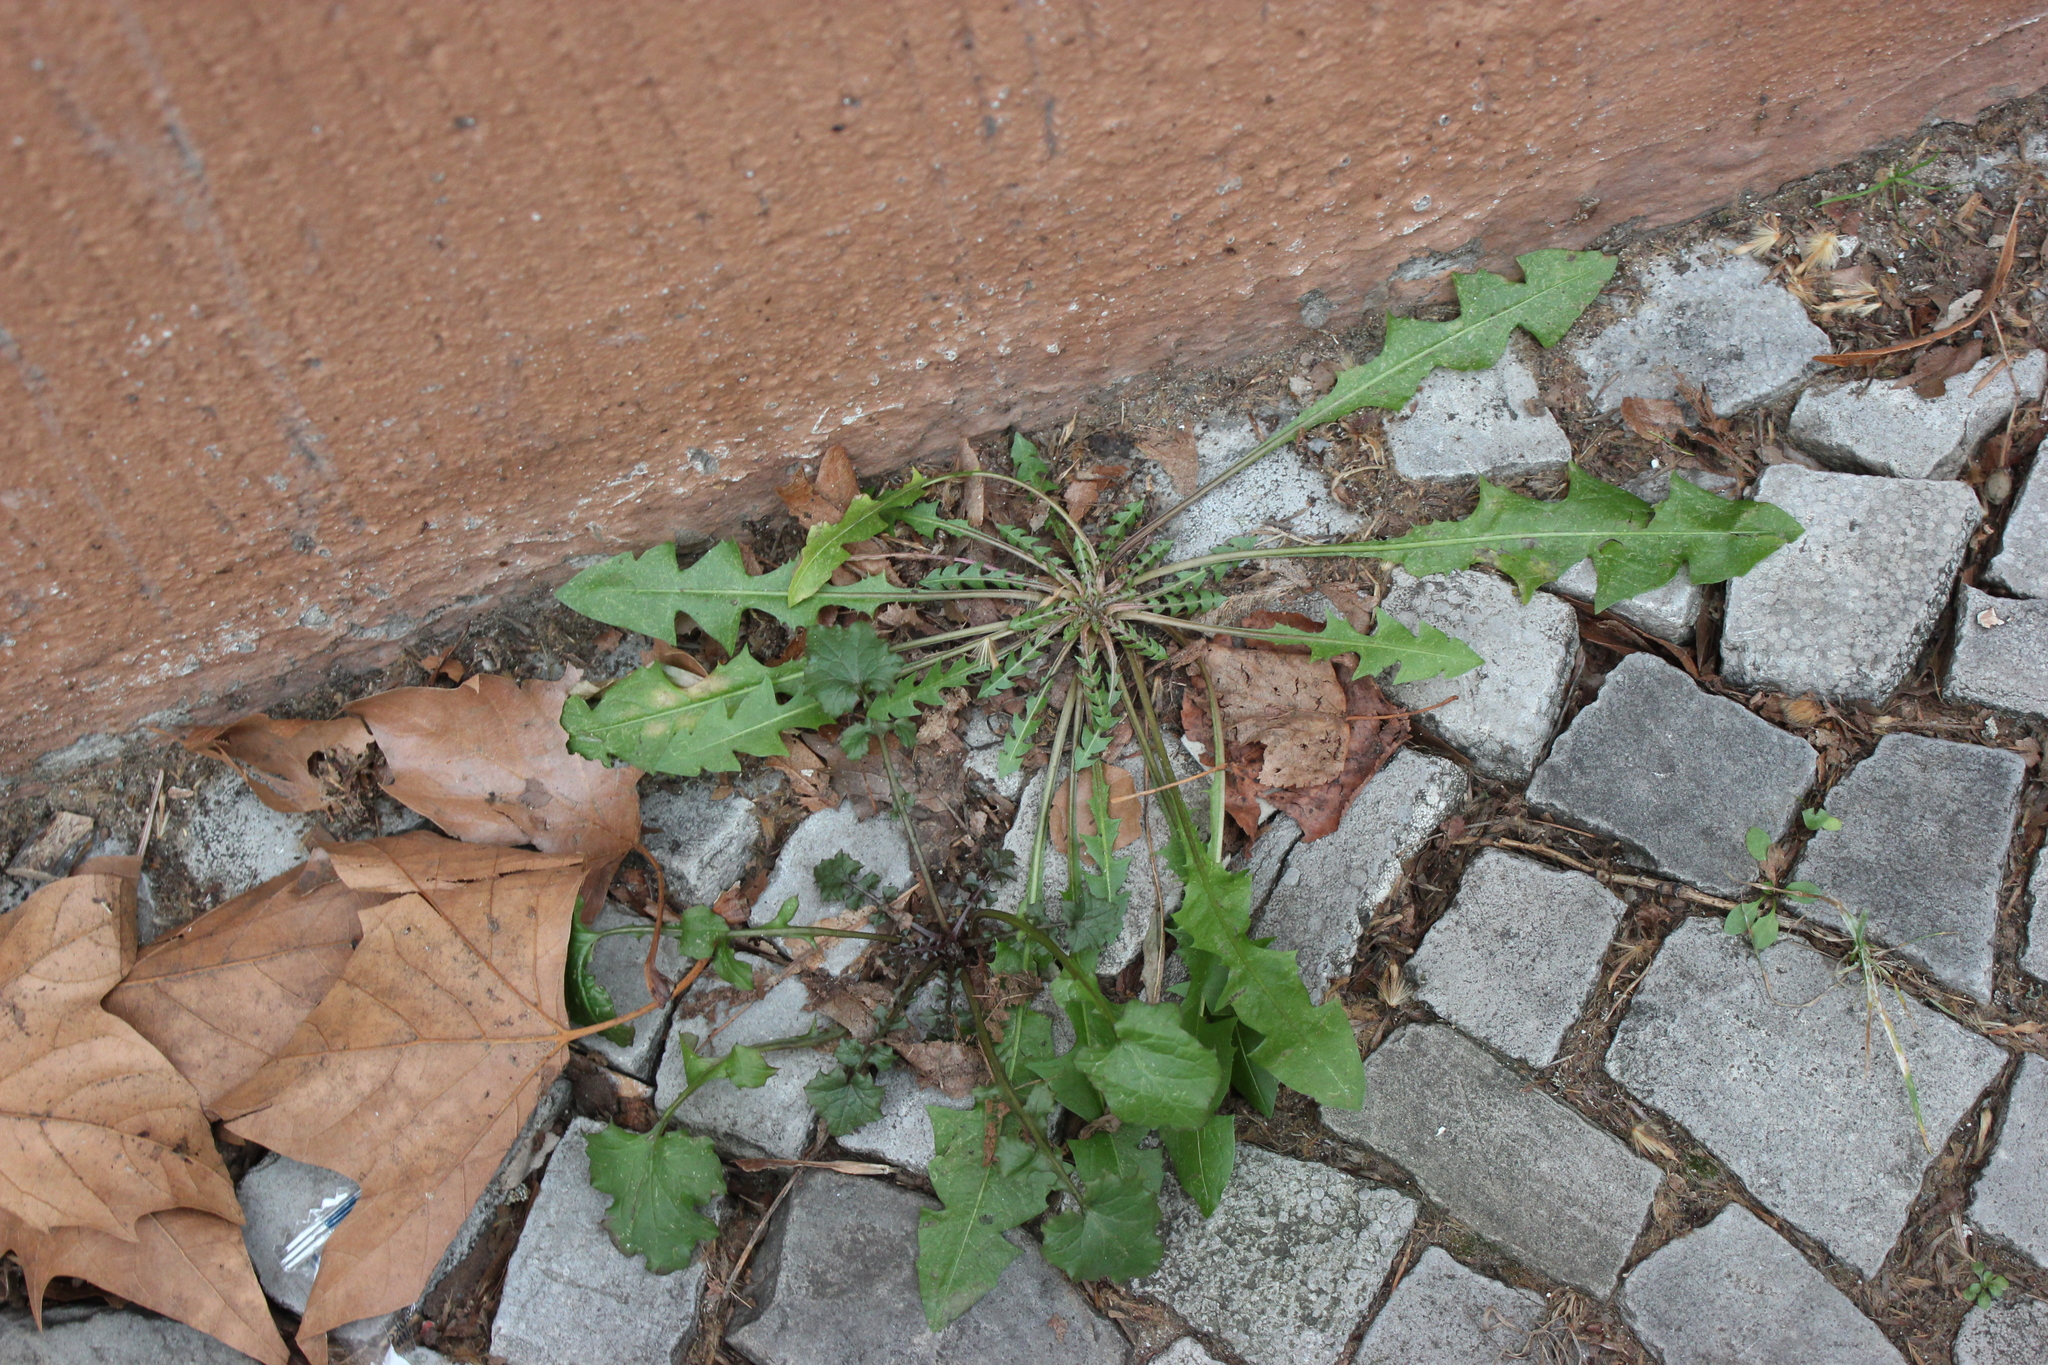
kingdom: Plantae
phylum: Tracheophyta
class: Magnoliopsida
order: Asterales
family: Asteraceae
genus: Taraxacum
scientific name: Taraxacum officinale
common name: Common dandelion
